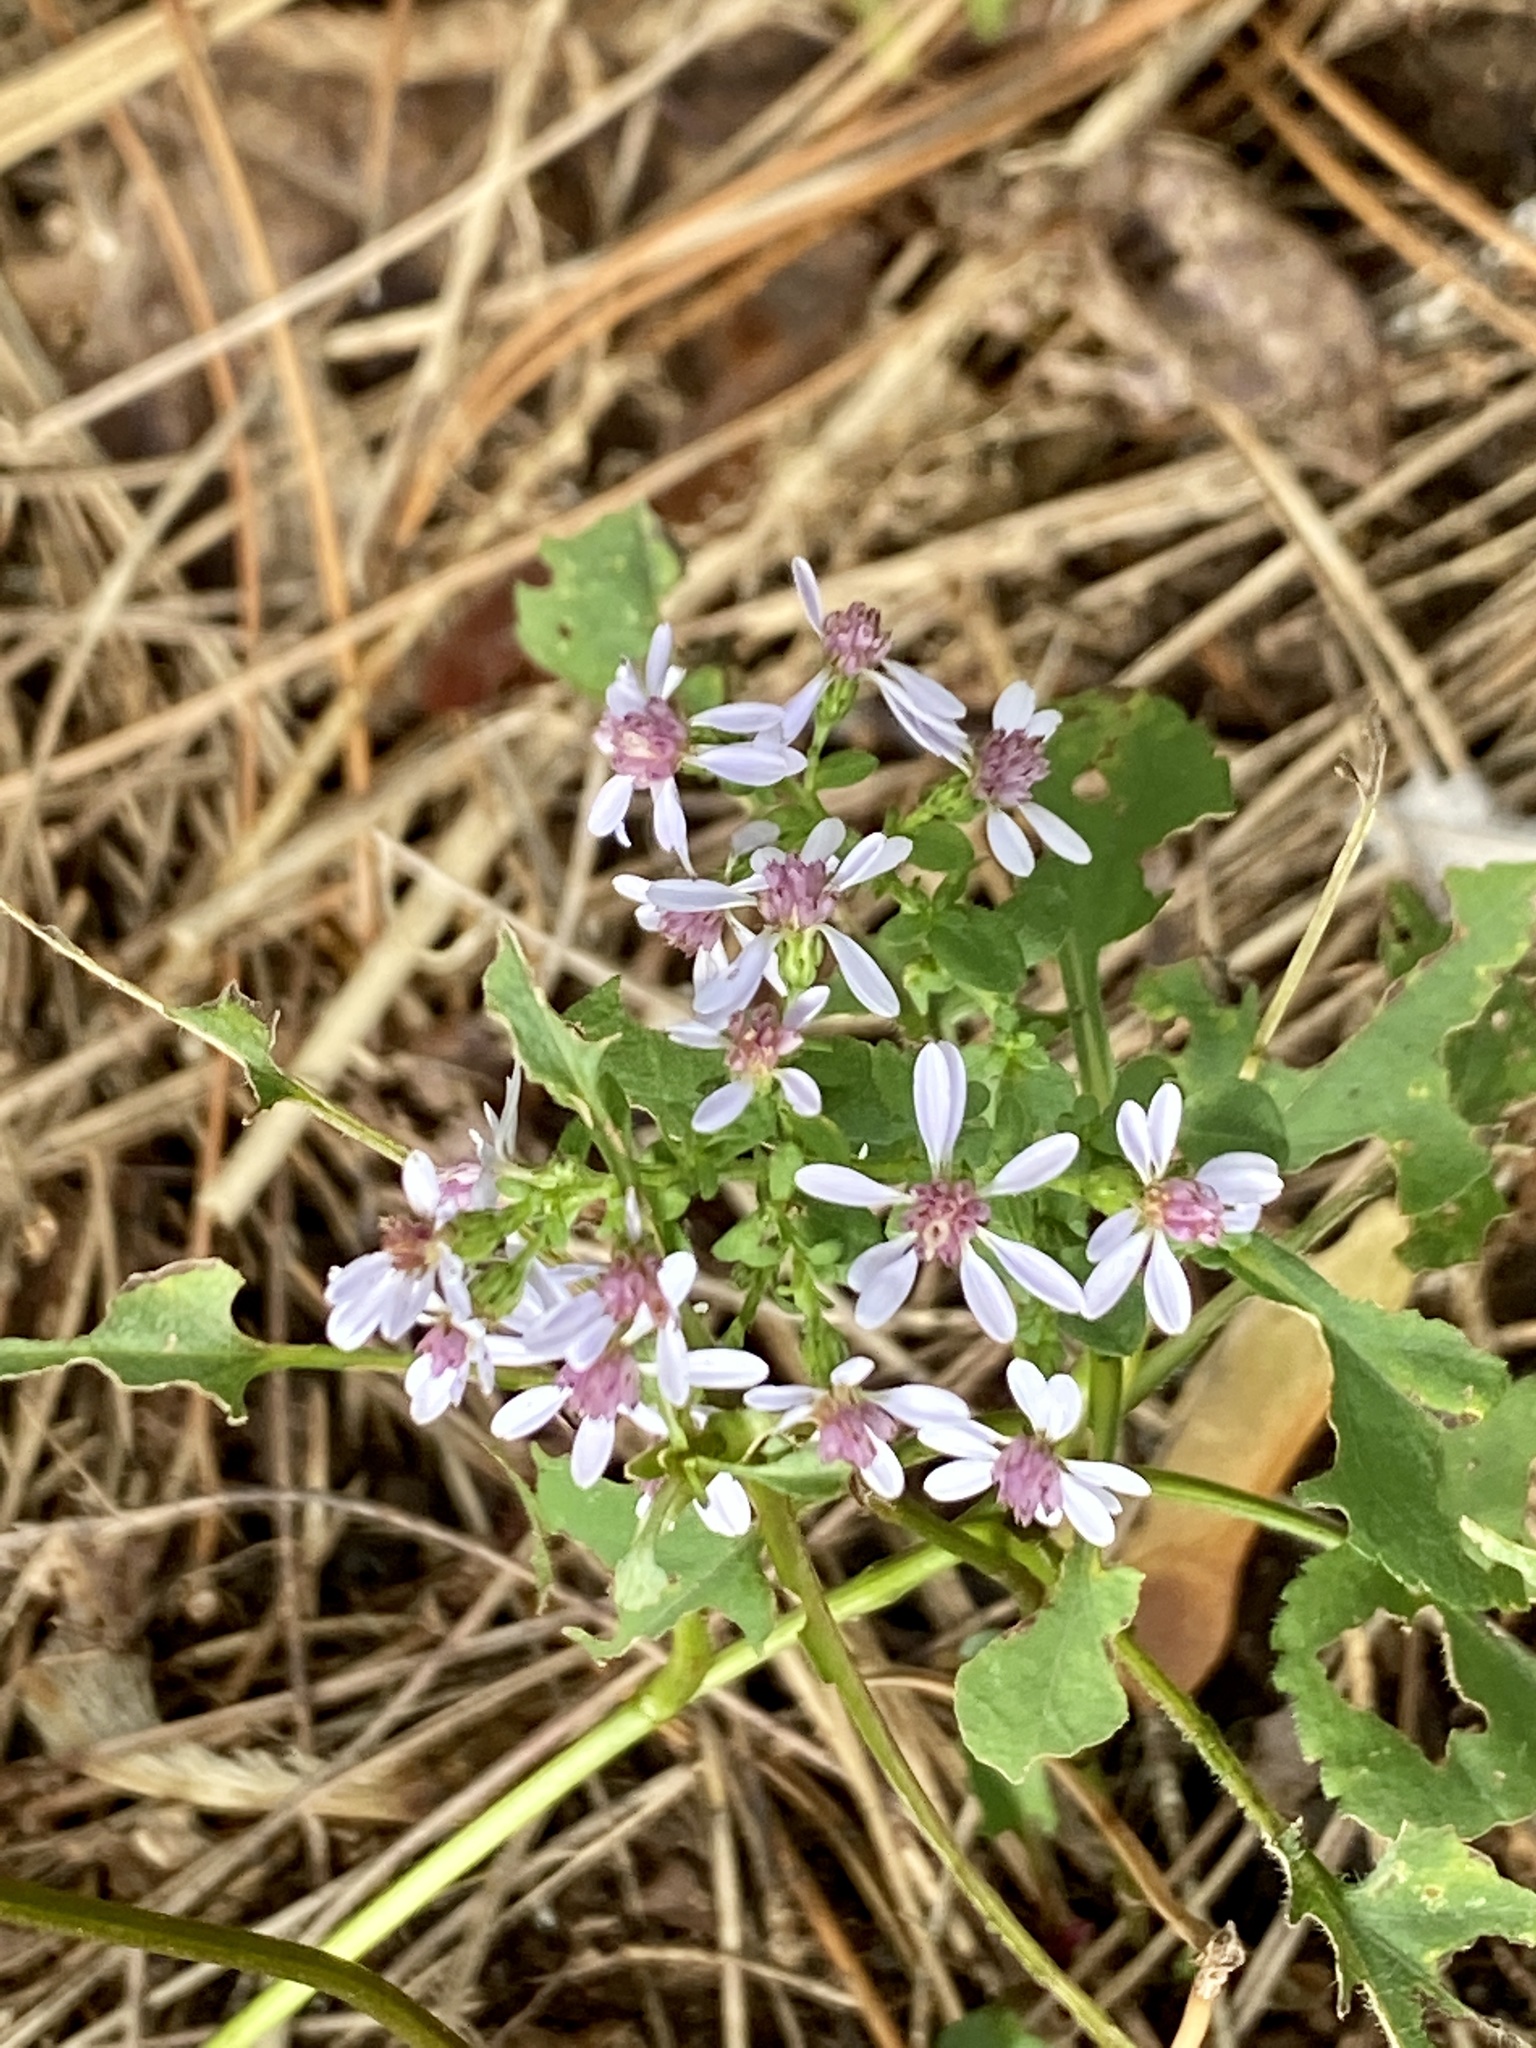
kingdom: Plantae
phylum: Tracheophyta
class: Magnoliopsida
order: Asterales
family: Asteraceae
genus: Symphyotrichum
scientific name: Symphyotrichum cordifolium
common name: Beeweed
